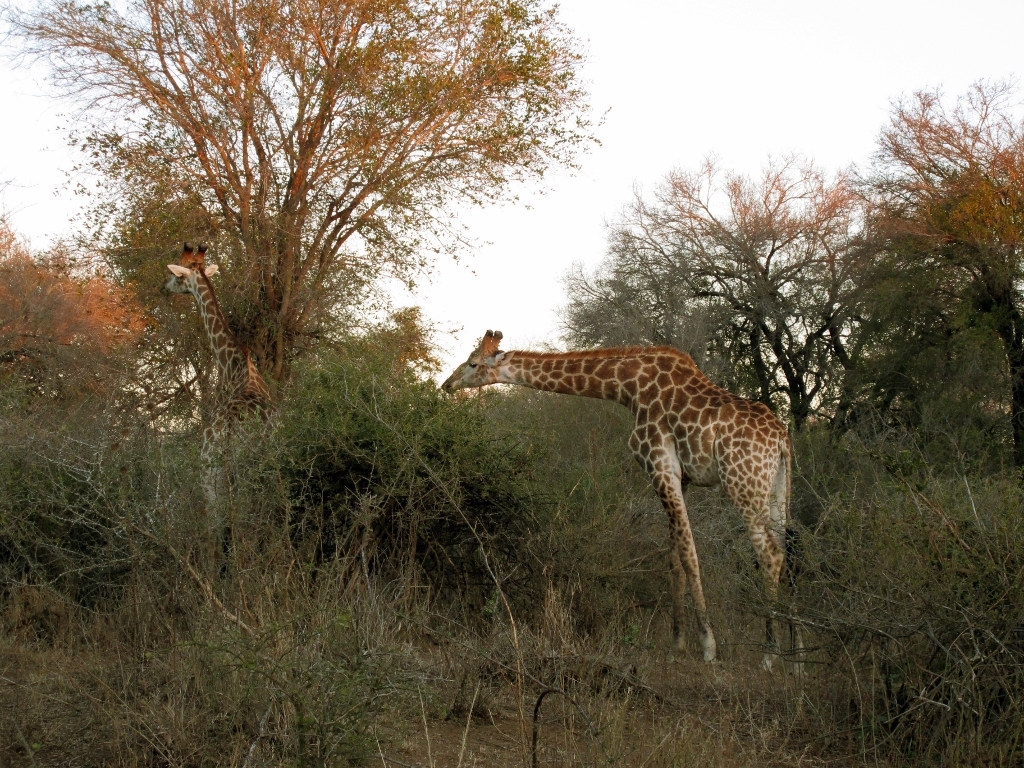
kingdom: Animalia
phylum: Chordata
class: Mammalia
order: Artiodactyla
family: Giraffidae
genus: Giraffa
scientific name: Giraffa giraffa
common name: Southern giraffe
